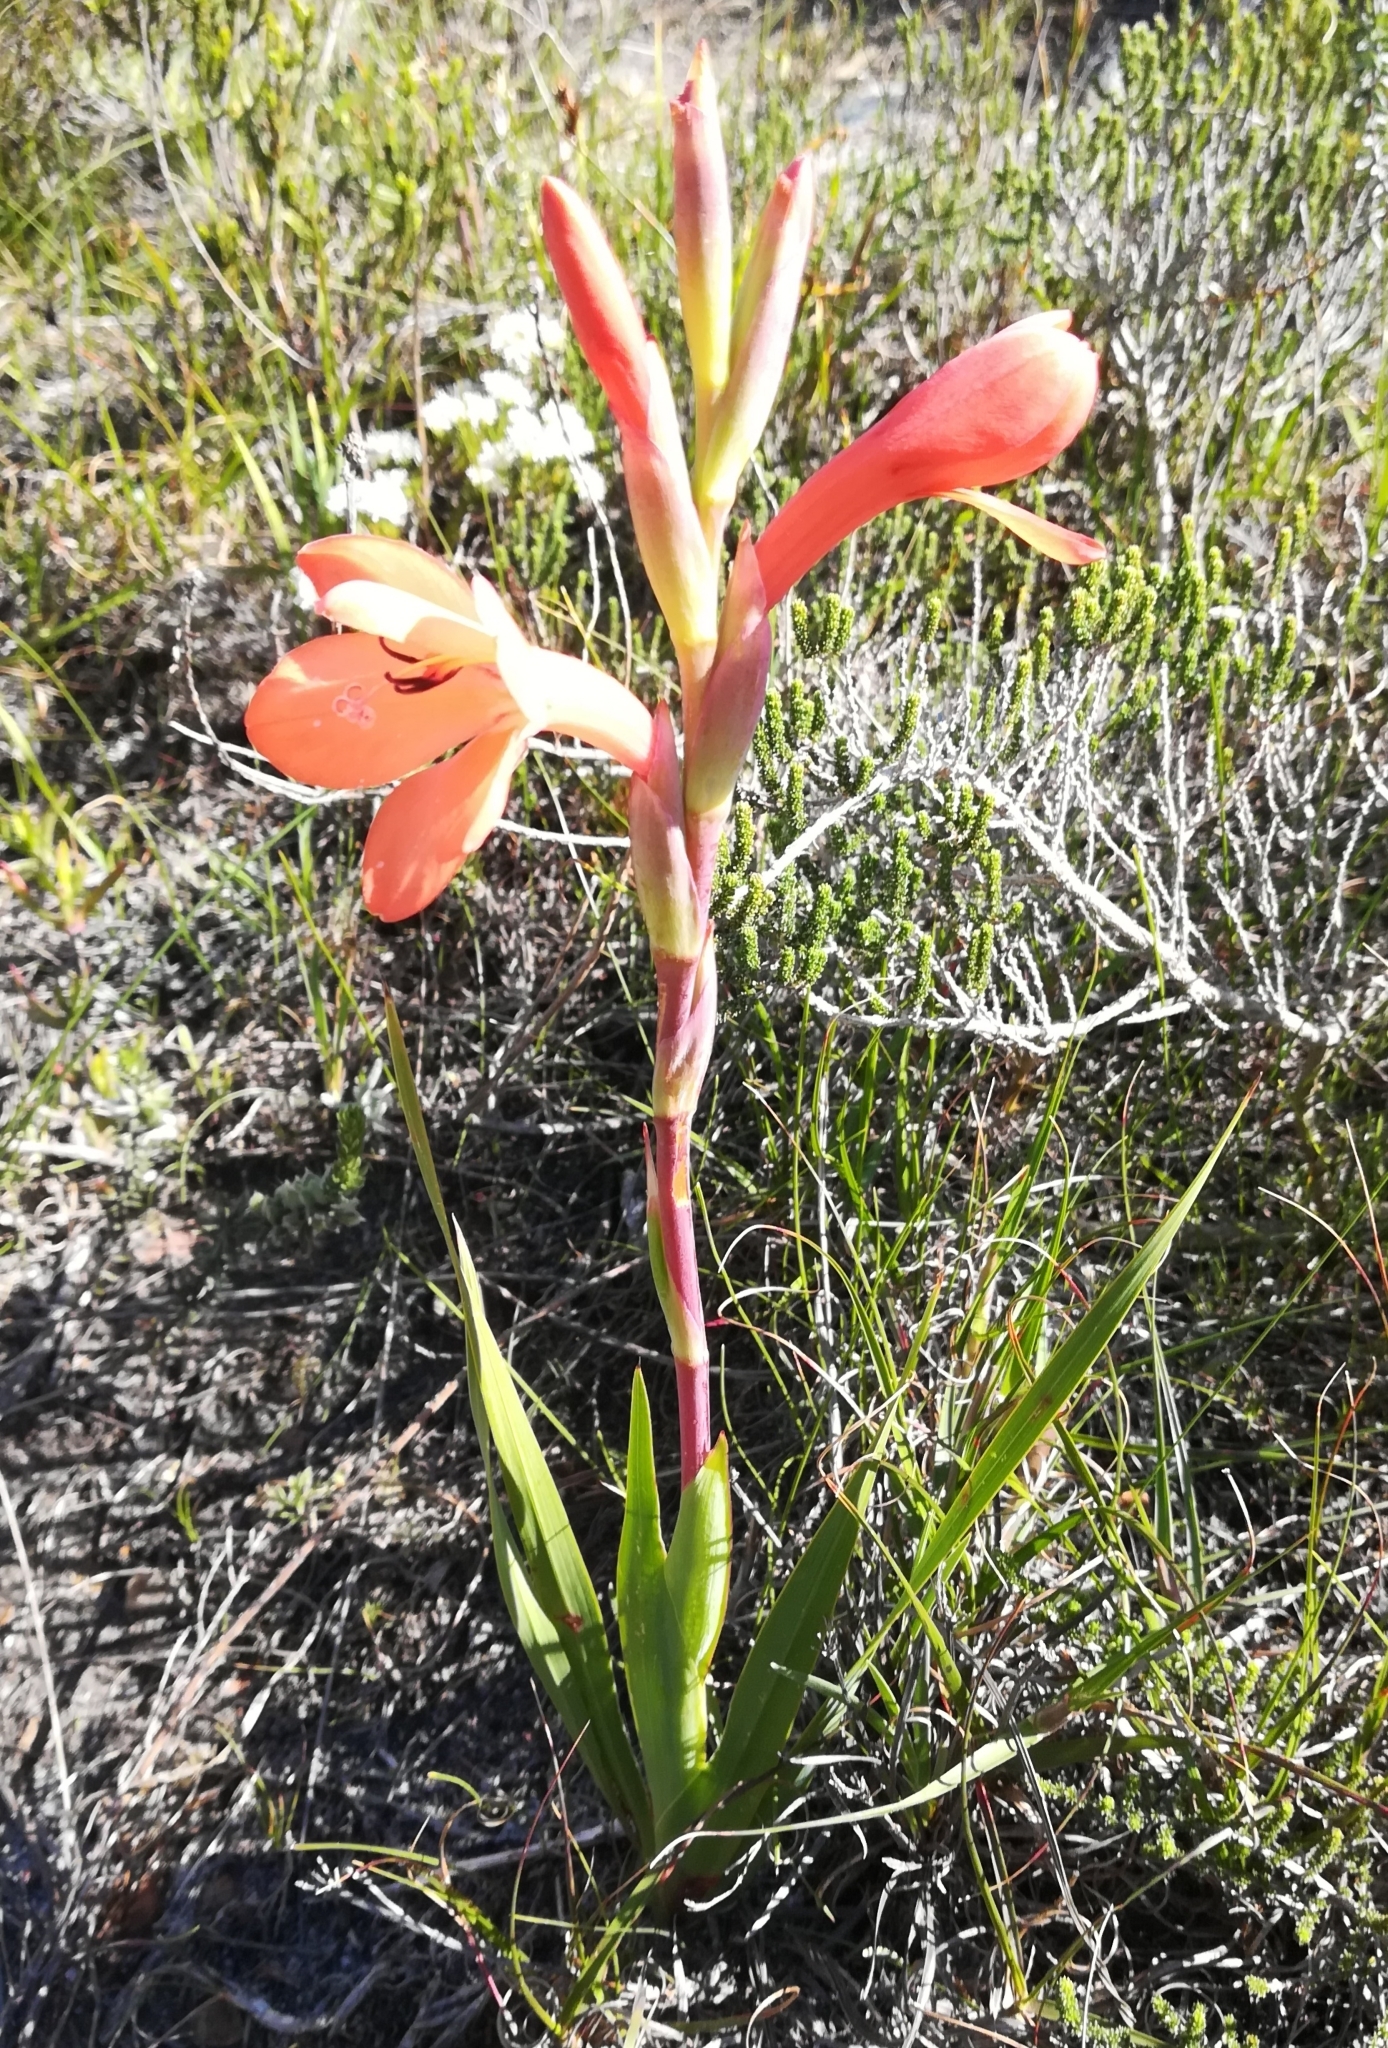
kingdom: Plantae
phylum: Tracheophyta
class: Liliopsida
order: Asparagales
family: Iridaceae
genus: Watsonia
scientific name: Watsonia coccinea
